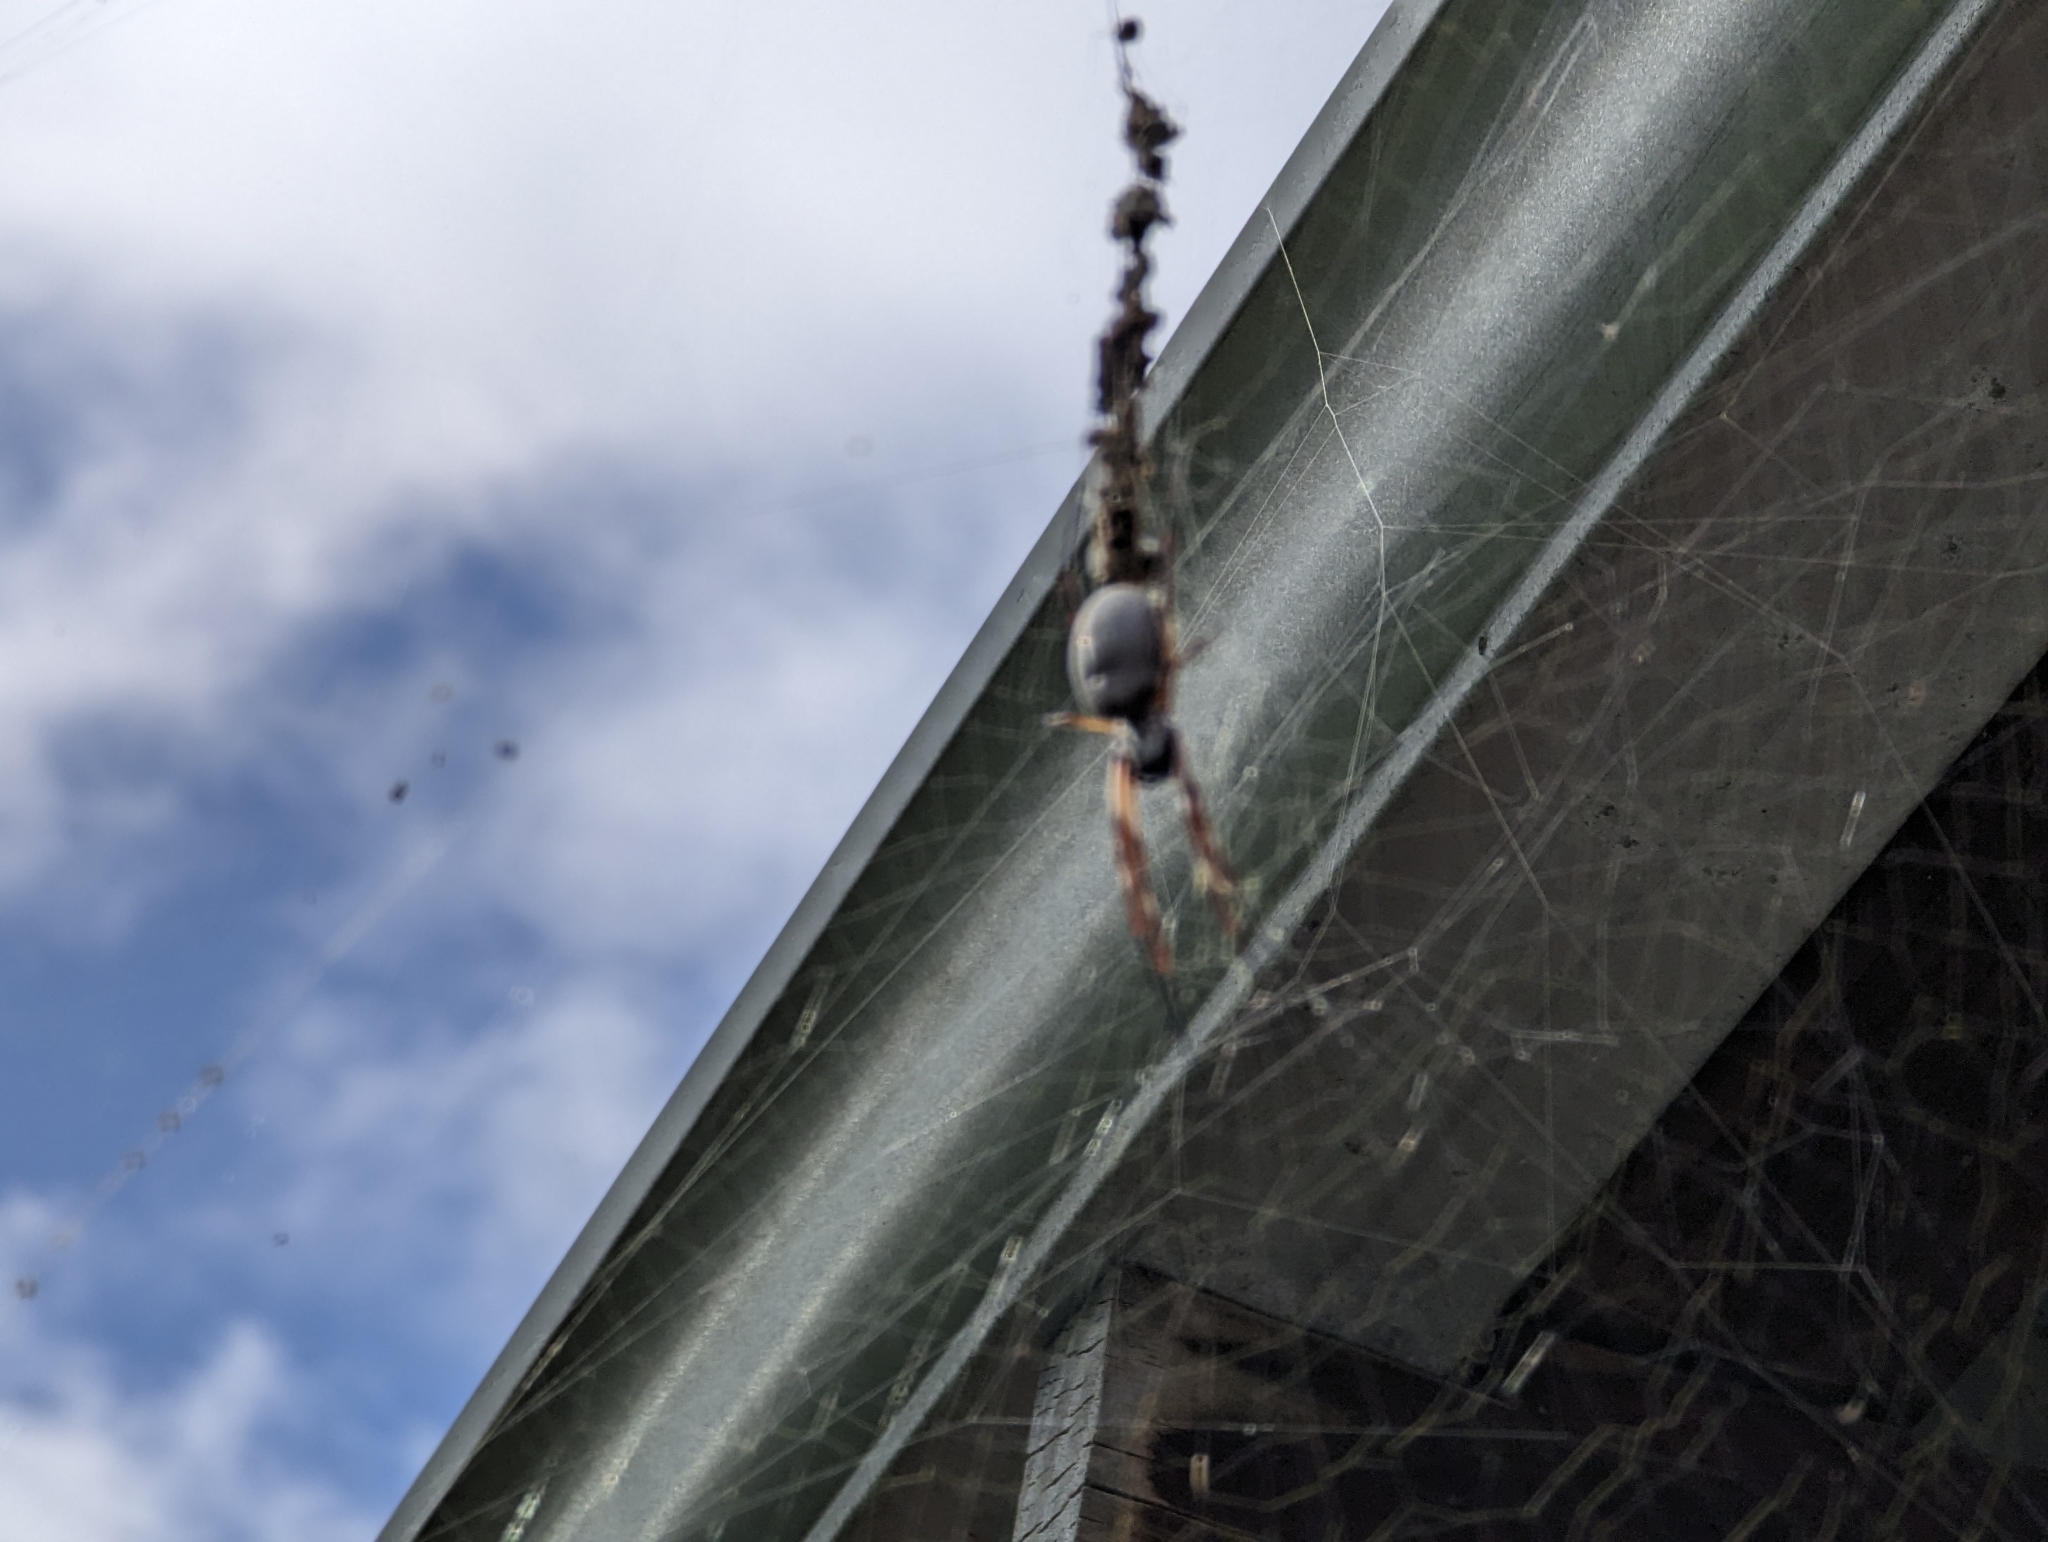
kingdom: Animalia
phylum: Arthropoda
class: Arachnida
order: Araneae
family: Araneidae
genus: Trichonephila
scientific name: Trichonephila edulis
